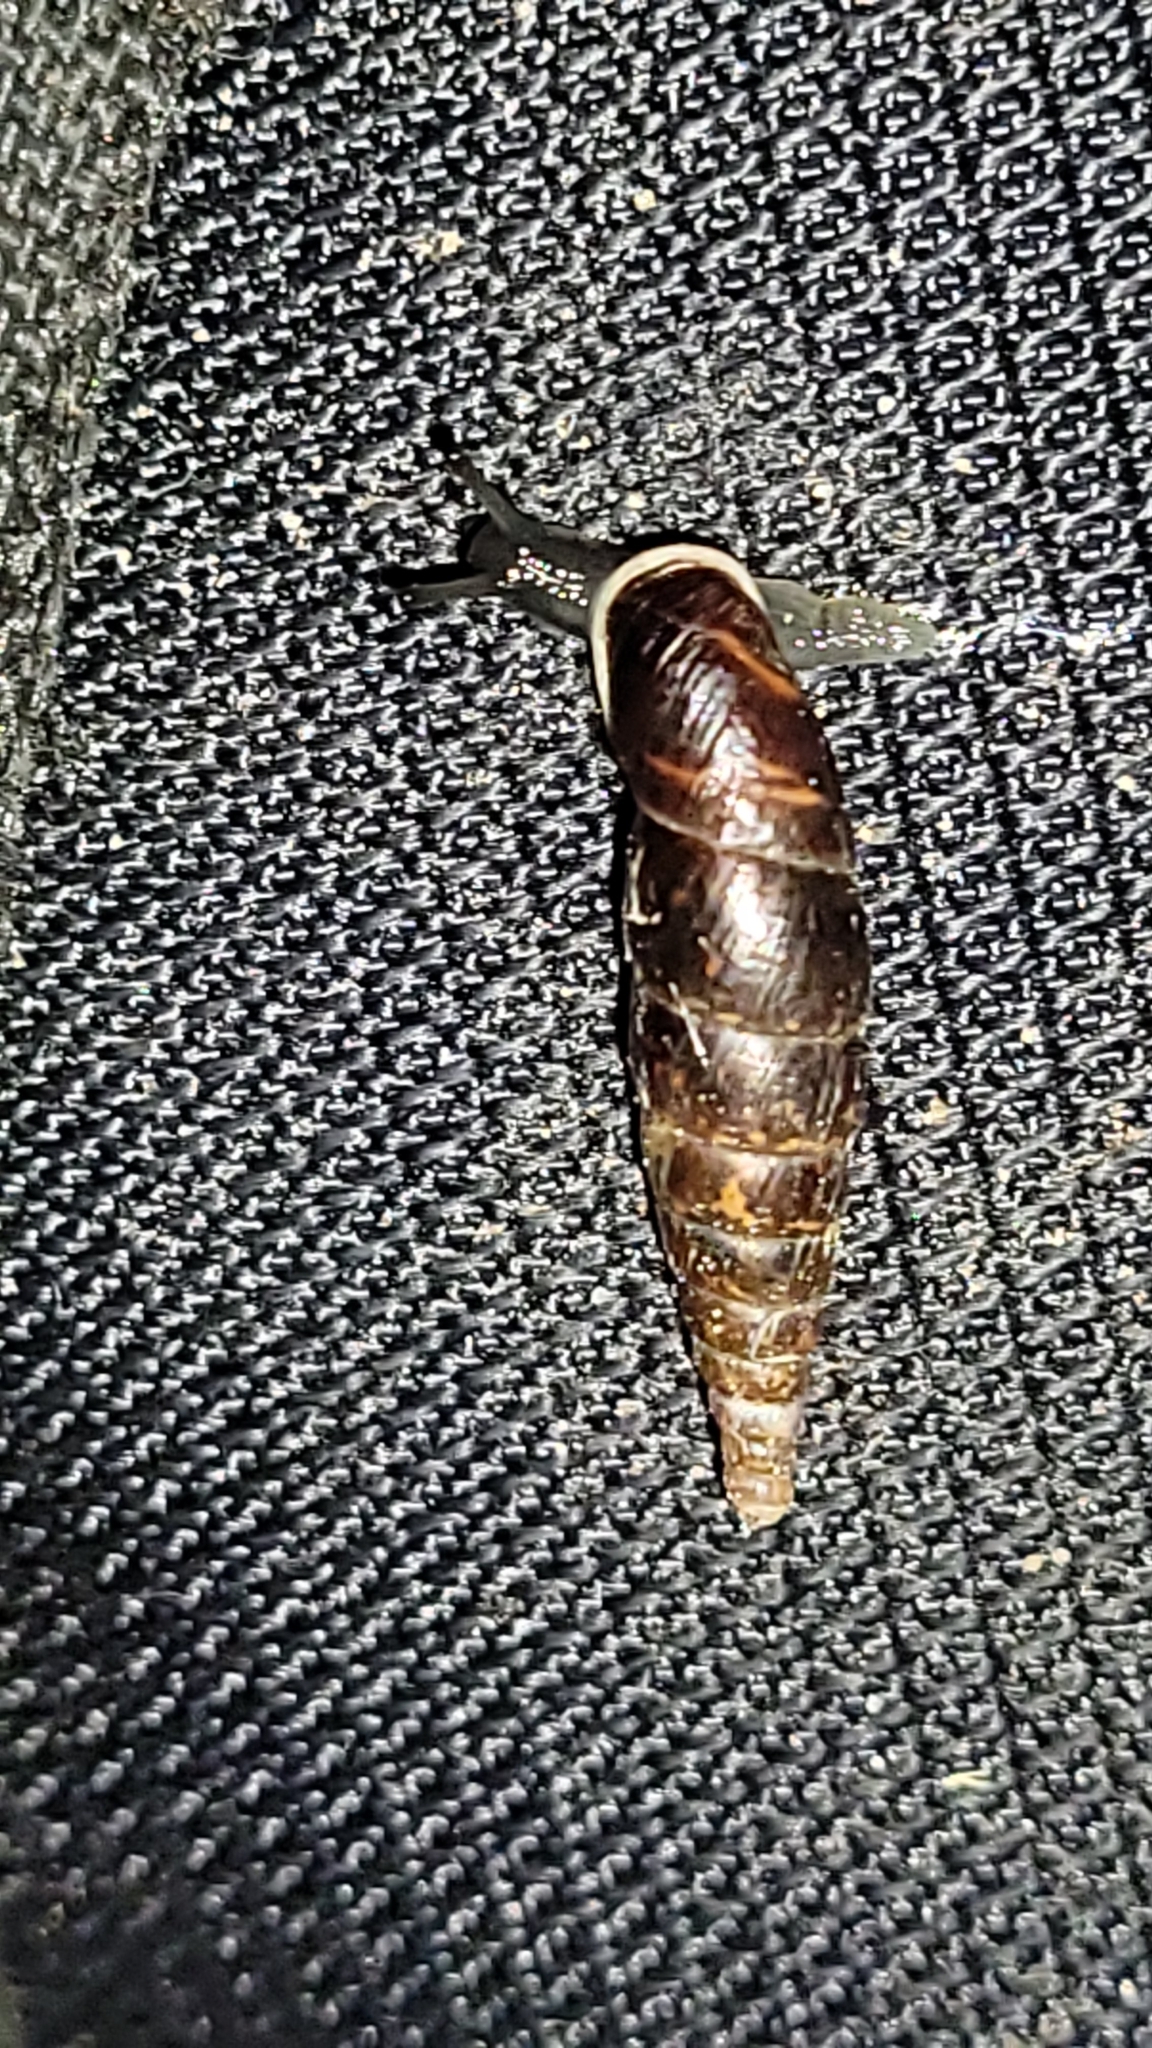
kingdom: Animalia
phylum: Mollusca
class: Gastropoda
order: Stylommatophora
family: Clausiliidae
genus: Cochlodina
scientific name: Cochlodina laminata
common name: Plaited door snail
